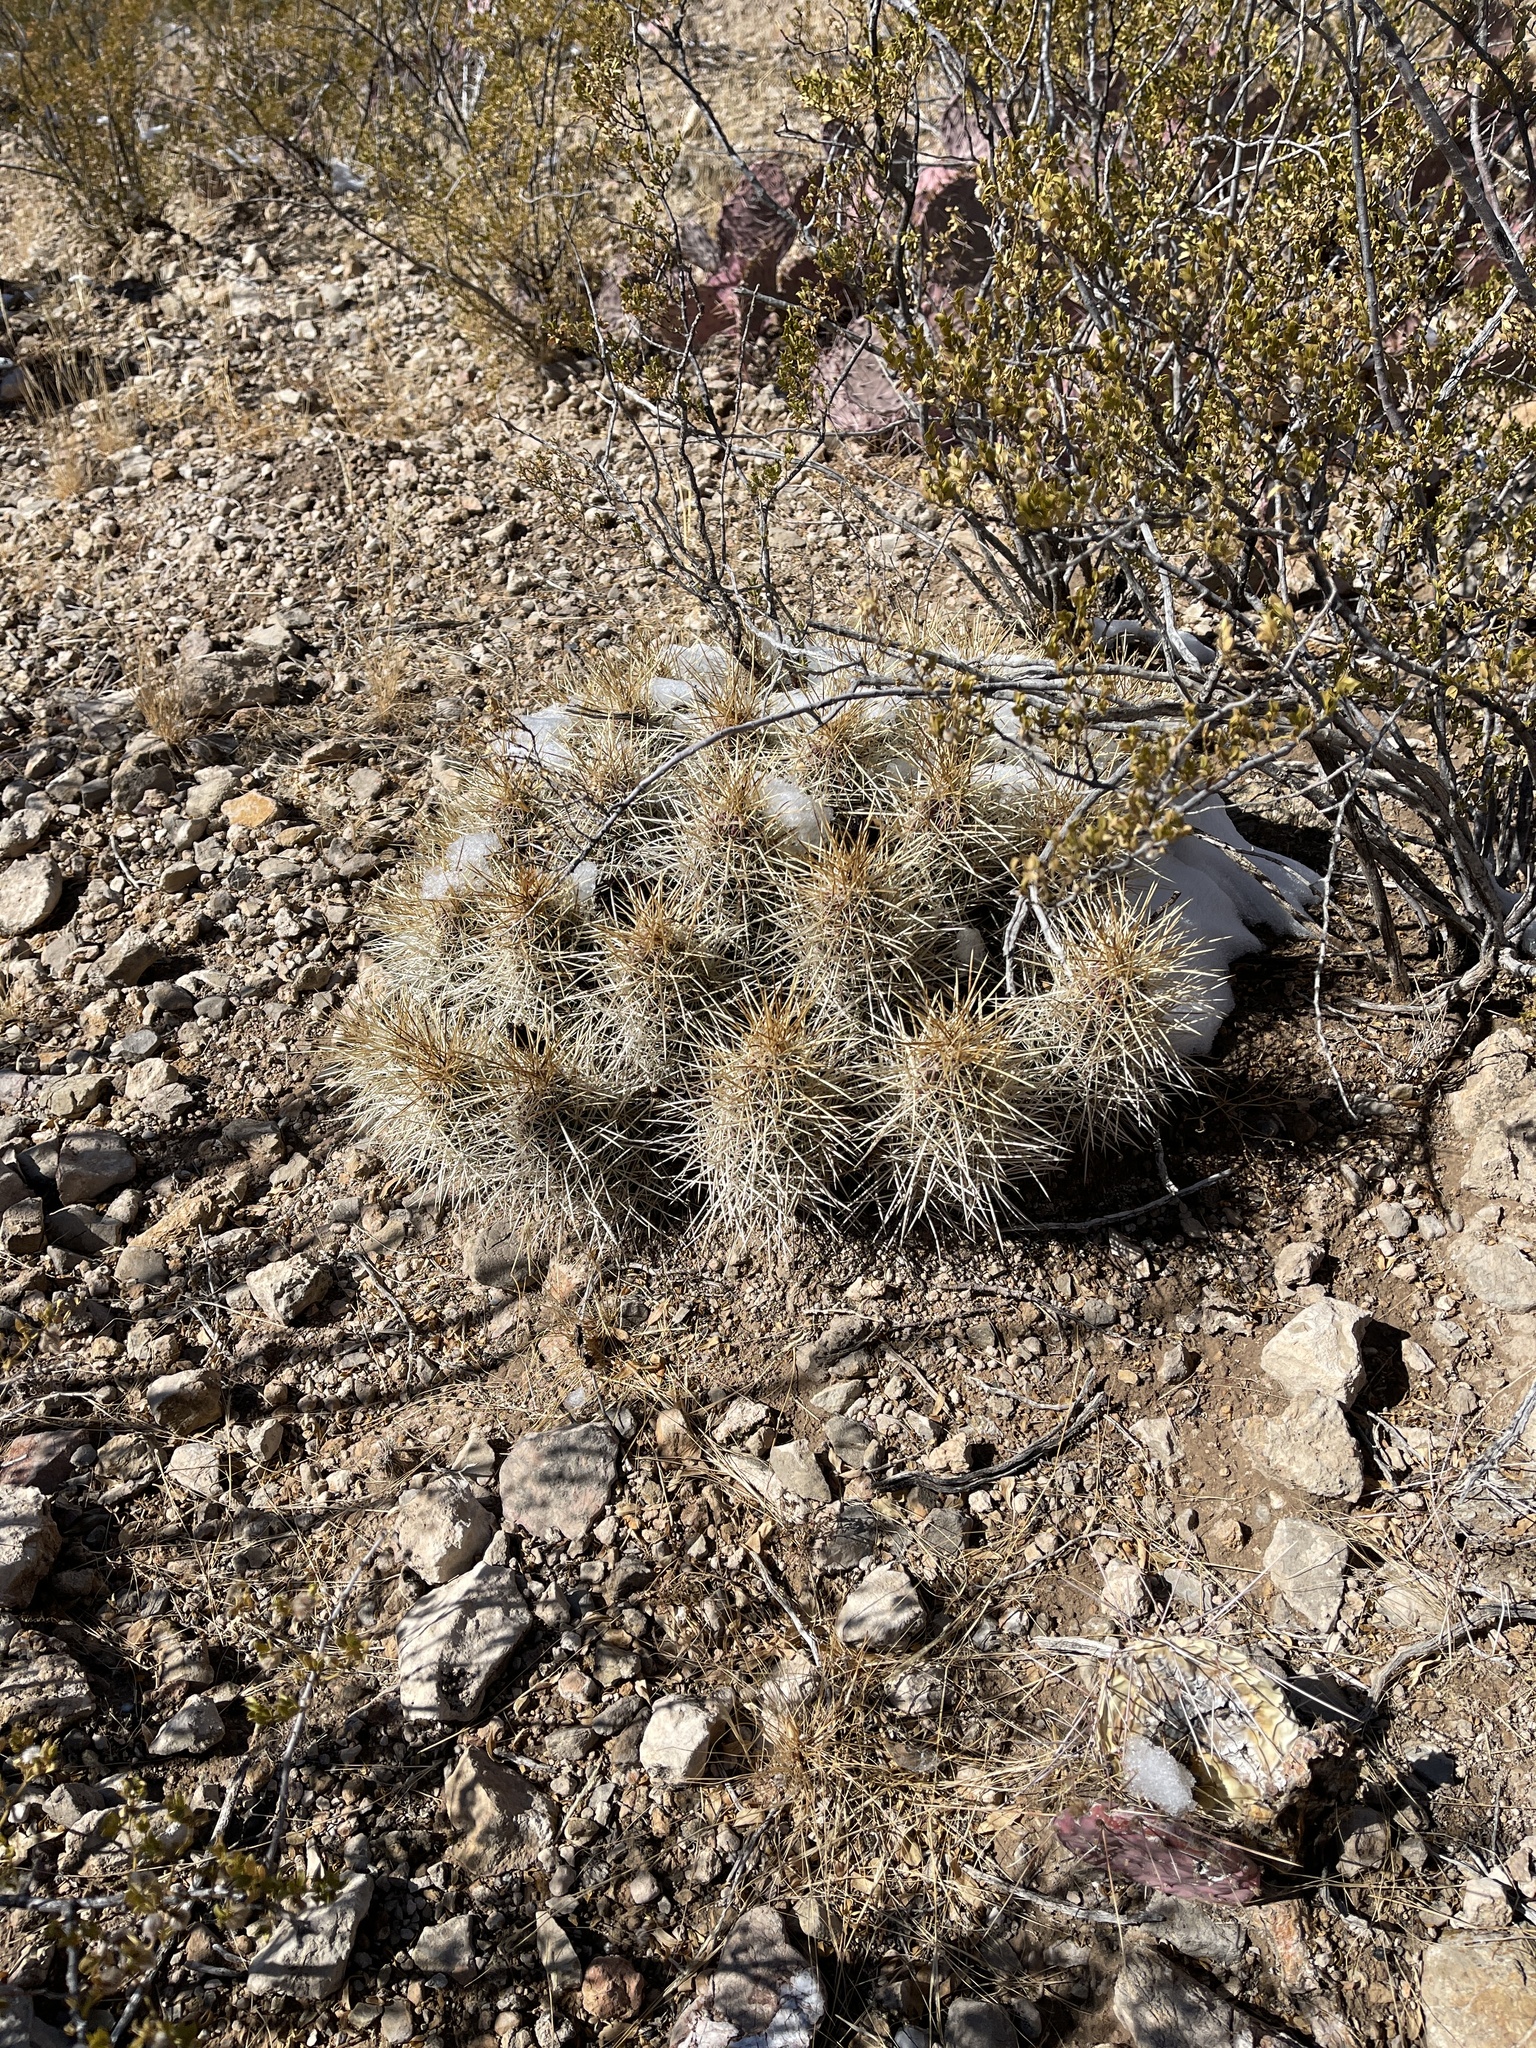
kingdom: Plantae
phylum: Tracheophyta
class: Magnoliopsida
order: Caryophyllales
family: Cactaceae
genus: Echinocereus
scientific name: Echinocereus stramineus
